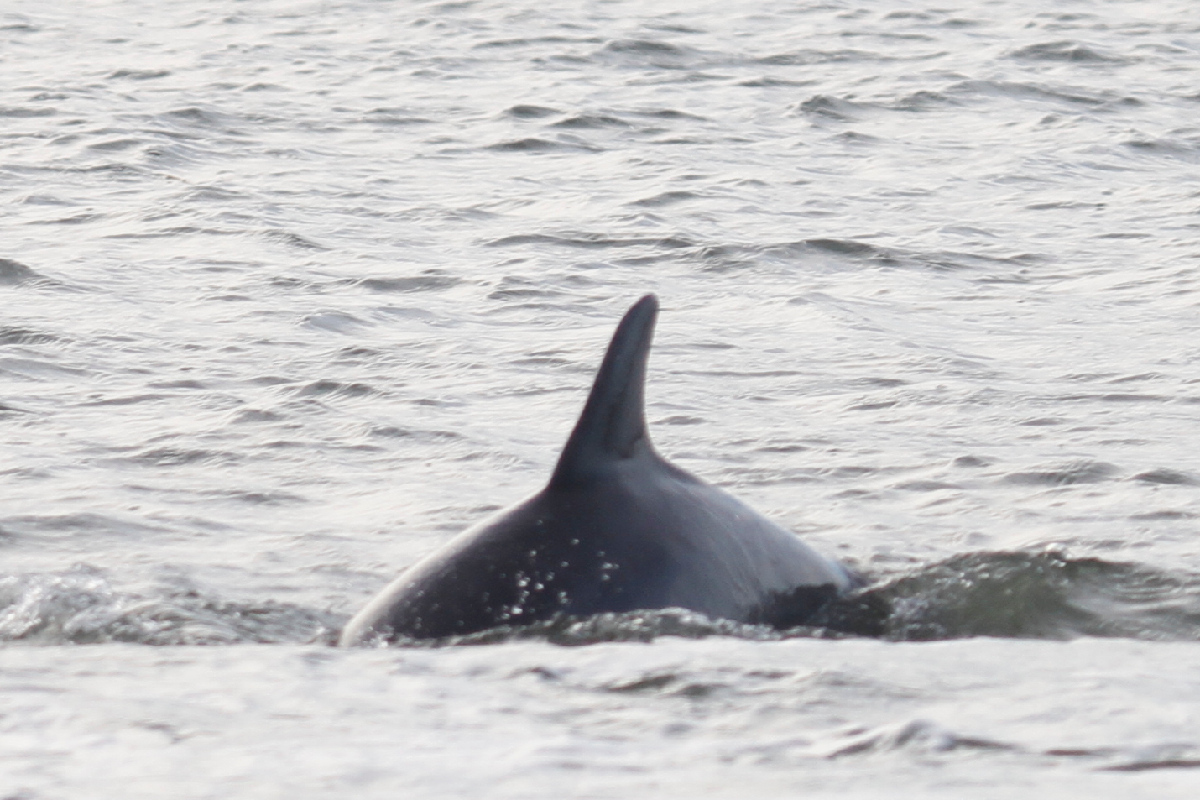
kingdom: Animalia
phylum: Chordata
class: Mammalia
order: Cetacea
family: Delphinidae
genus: Tursiops
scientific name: Tursiops truncatus
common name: Bottlenose dolphin
